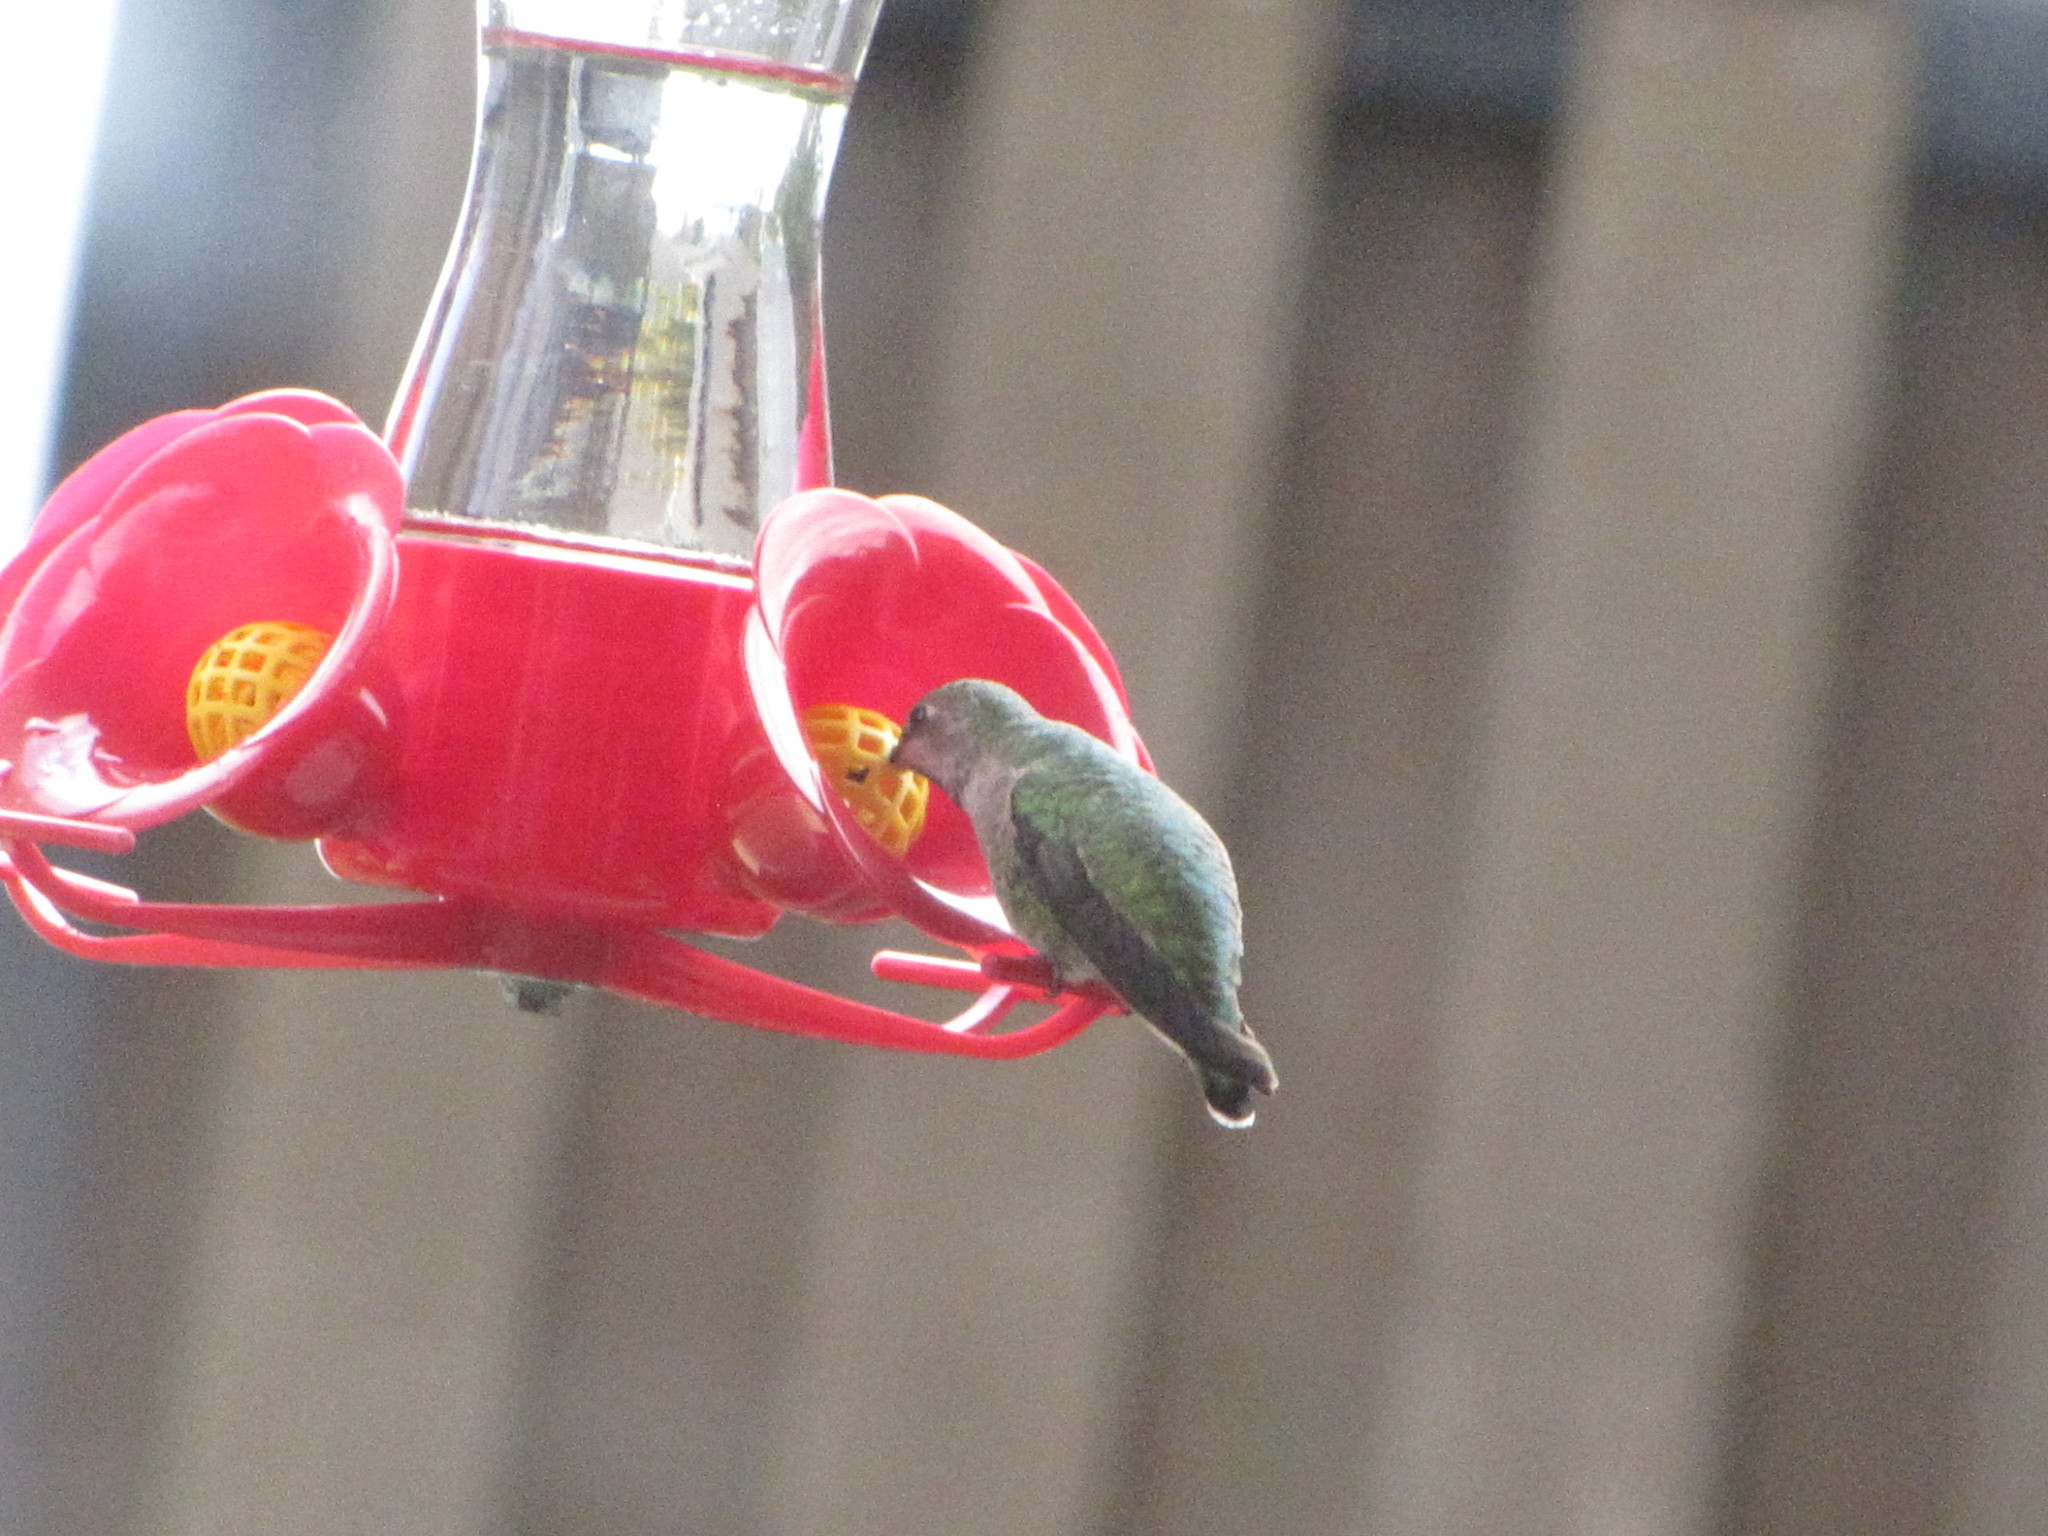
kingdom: Animalia
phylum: Chordata
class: Aves
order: Apodiformes
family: Trochilidae
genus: Calypte
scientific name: Calypte anna
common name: Anna's hummingbird
